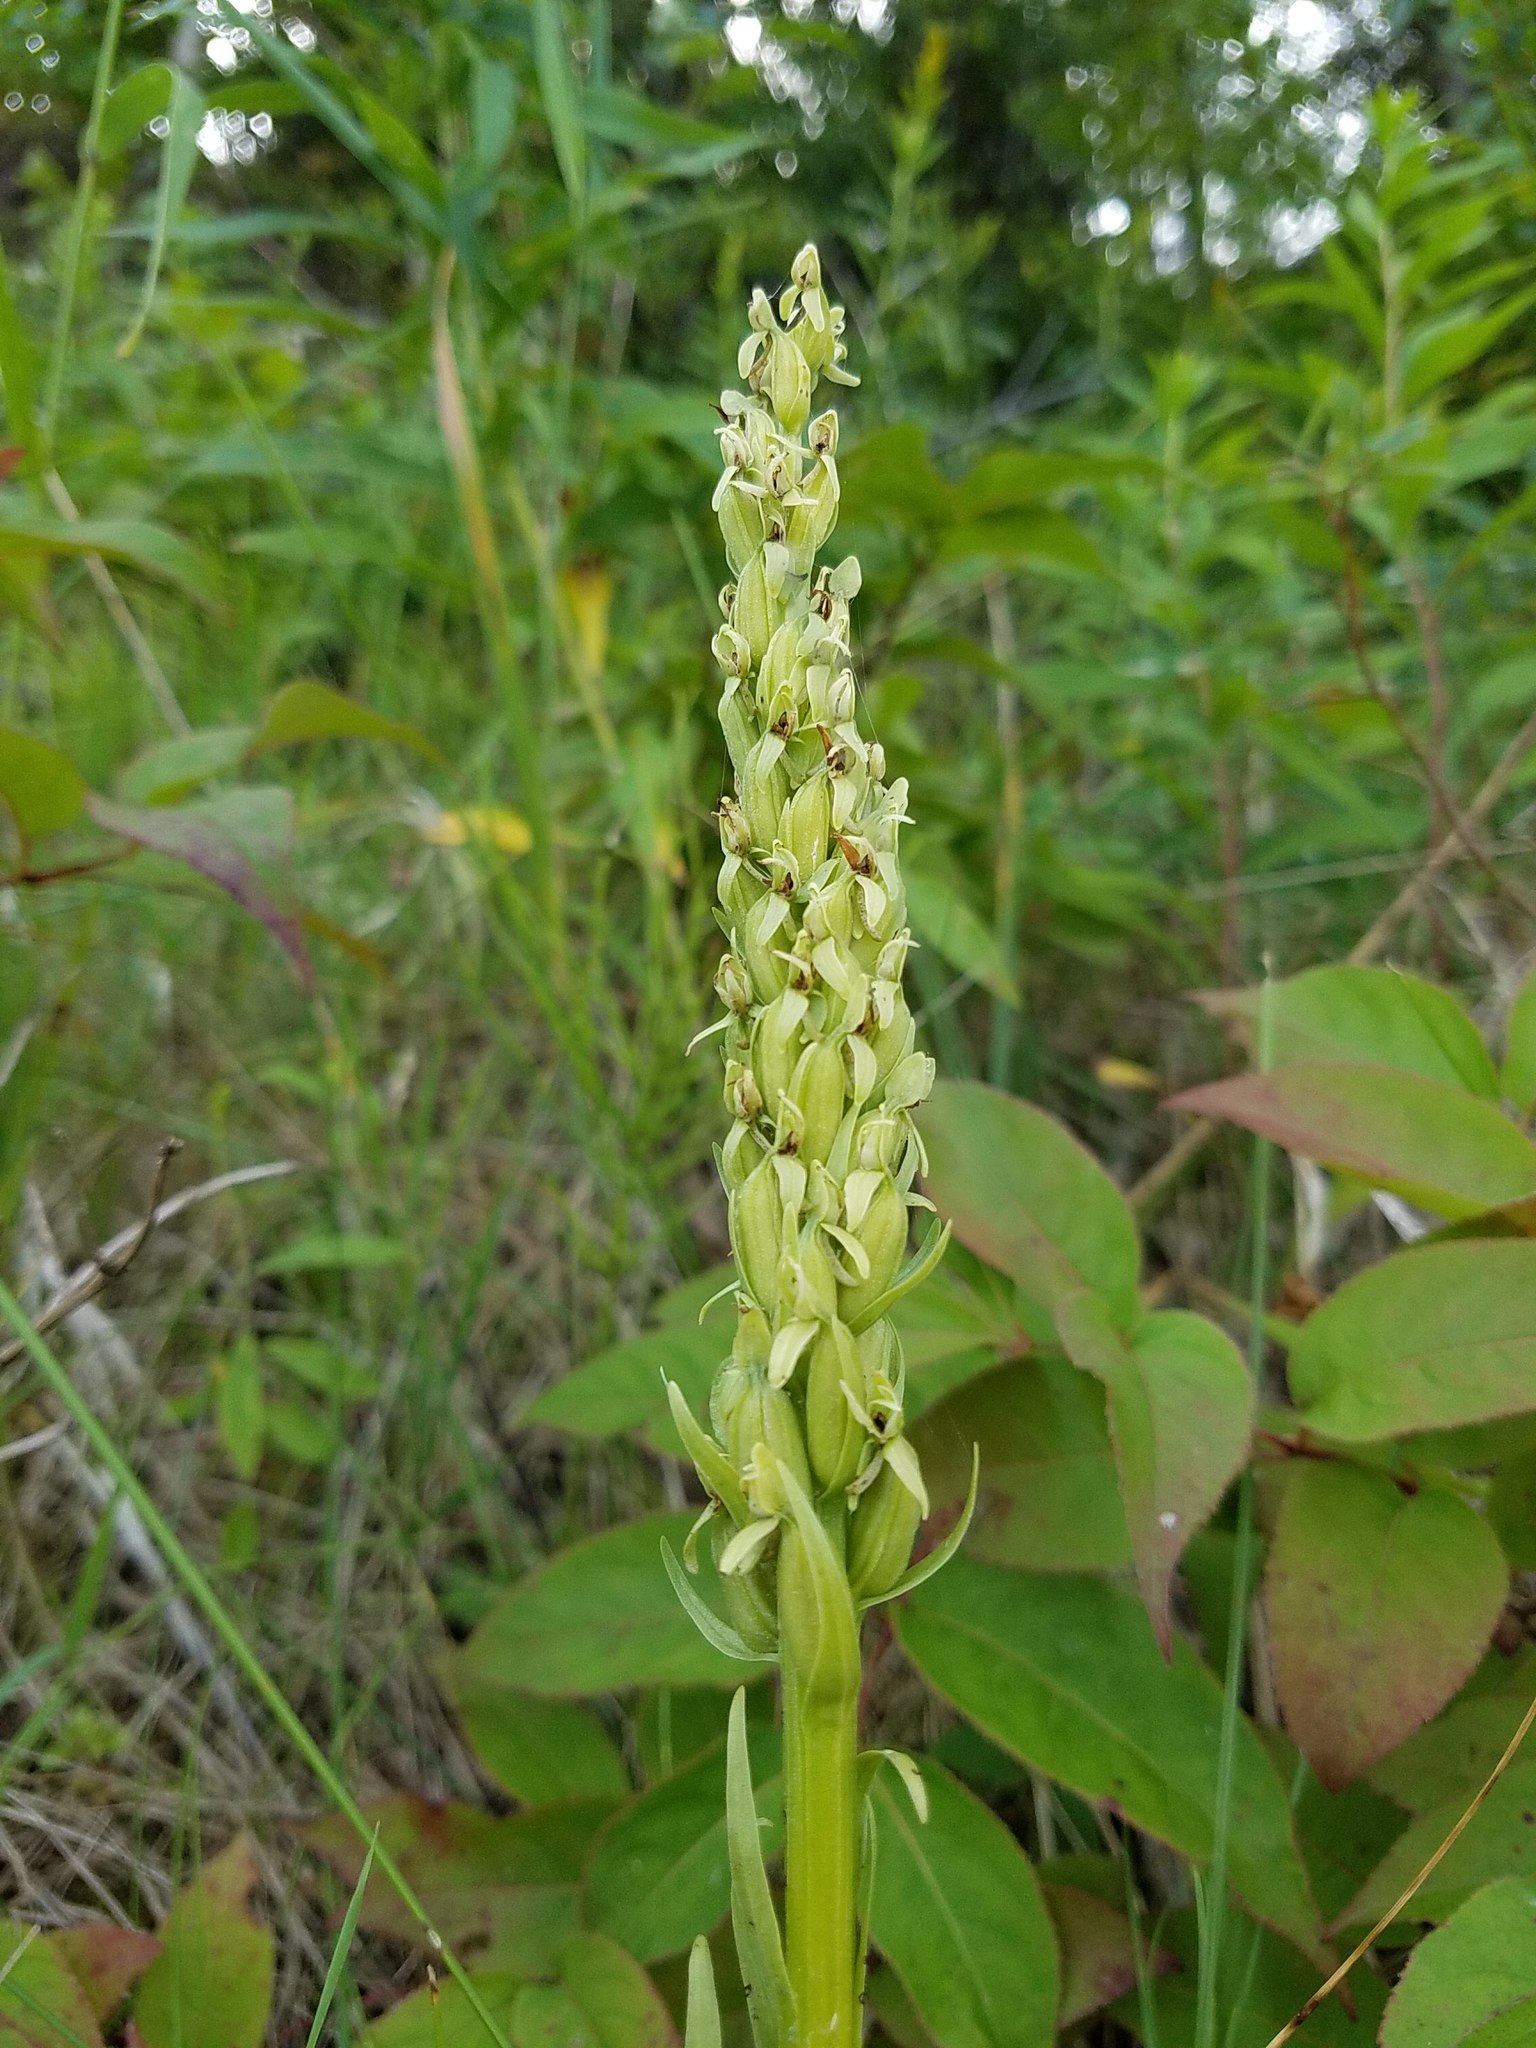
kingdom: Plantae
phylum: Tracheophyta
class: Liliopsida
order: Asparagales
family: Orchidaceae
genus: Platanthera
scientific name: Platanthera huronensis
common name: Fragrant green orchid
